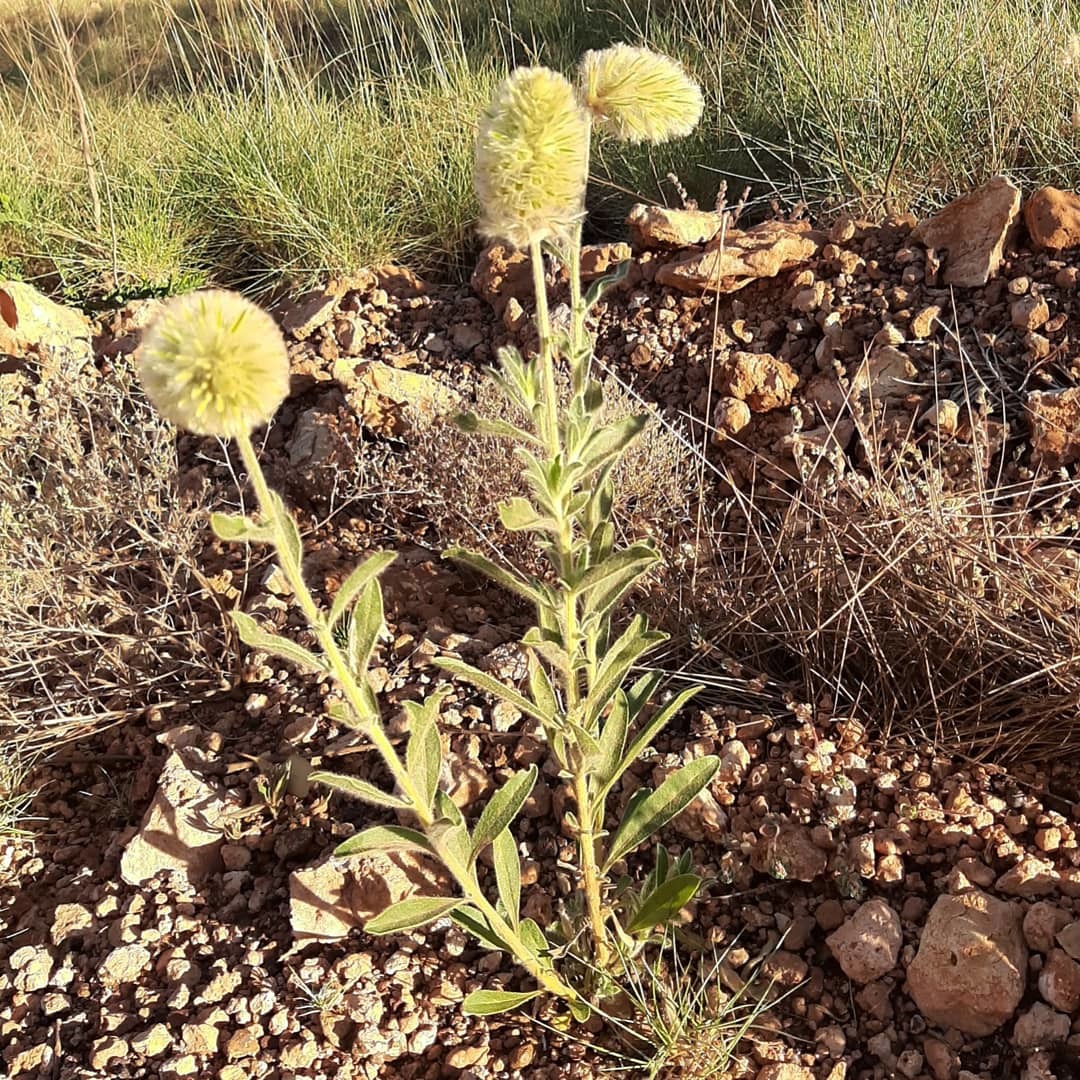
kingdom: Plantae
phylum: Tracheophyta
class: Magnoliopsida
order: Caryophyllales
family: Amaranthaceae
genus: Ptilotus
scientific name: Ptilotus clementii
